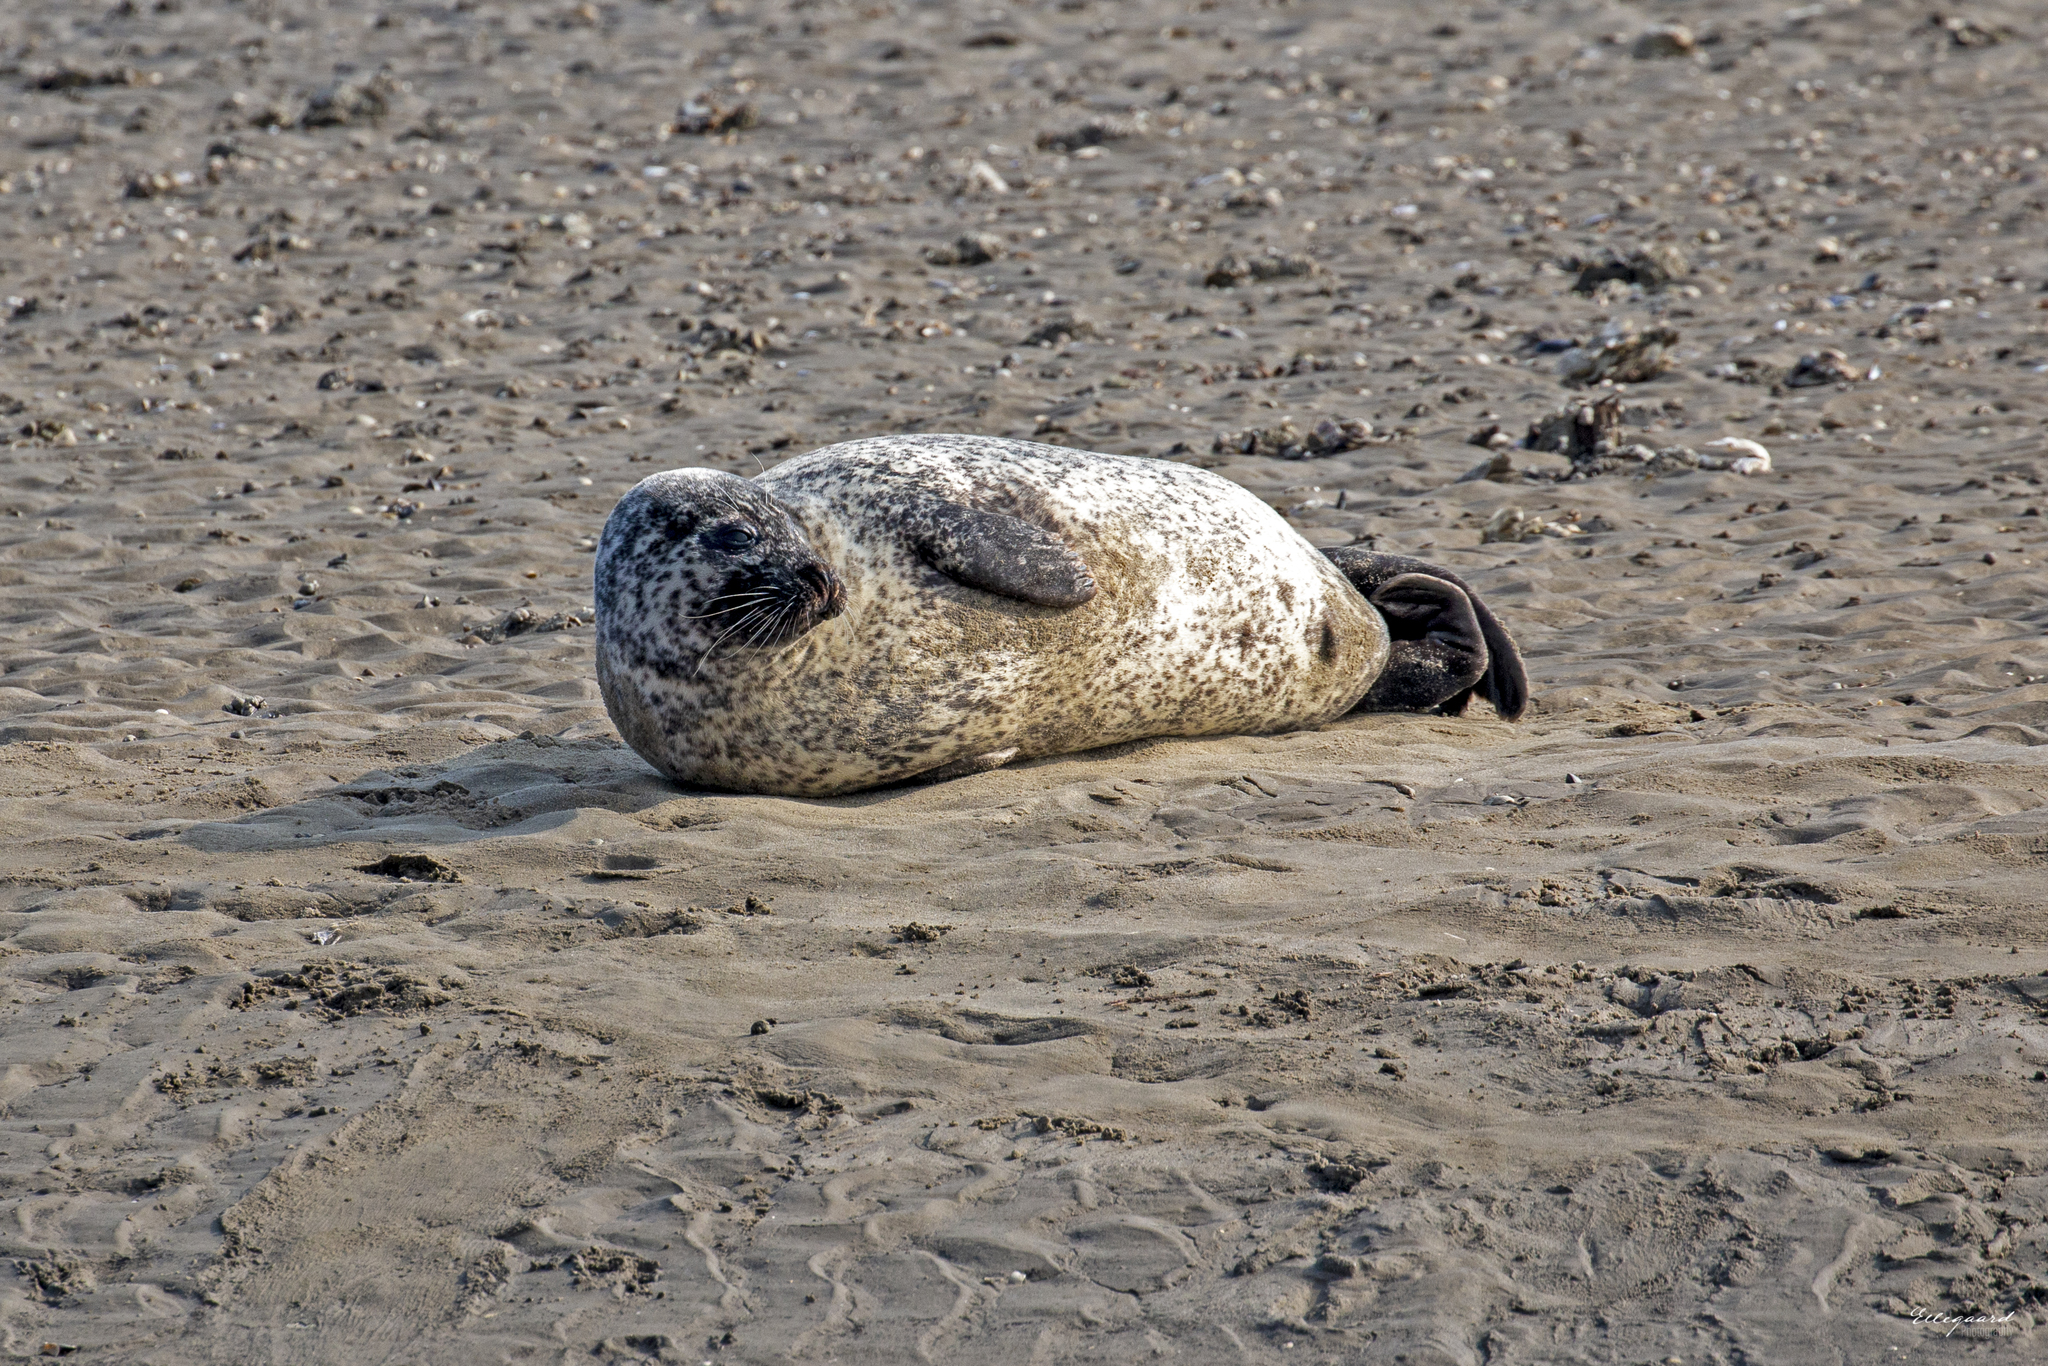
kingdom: Animalia
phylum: Chordata
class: Mammalia
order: Carnivora
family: Phocidae
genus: Phoca
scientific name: Phoca vitulina
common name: Harbor seal
